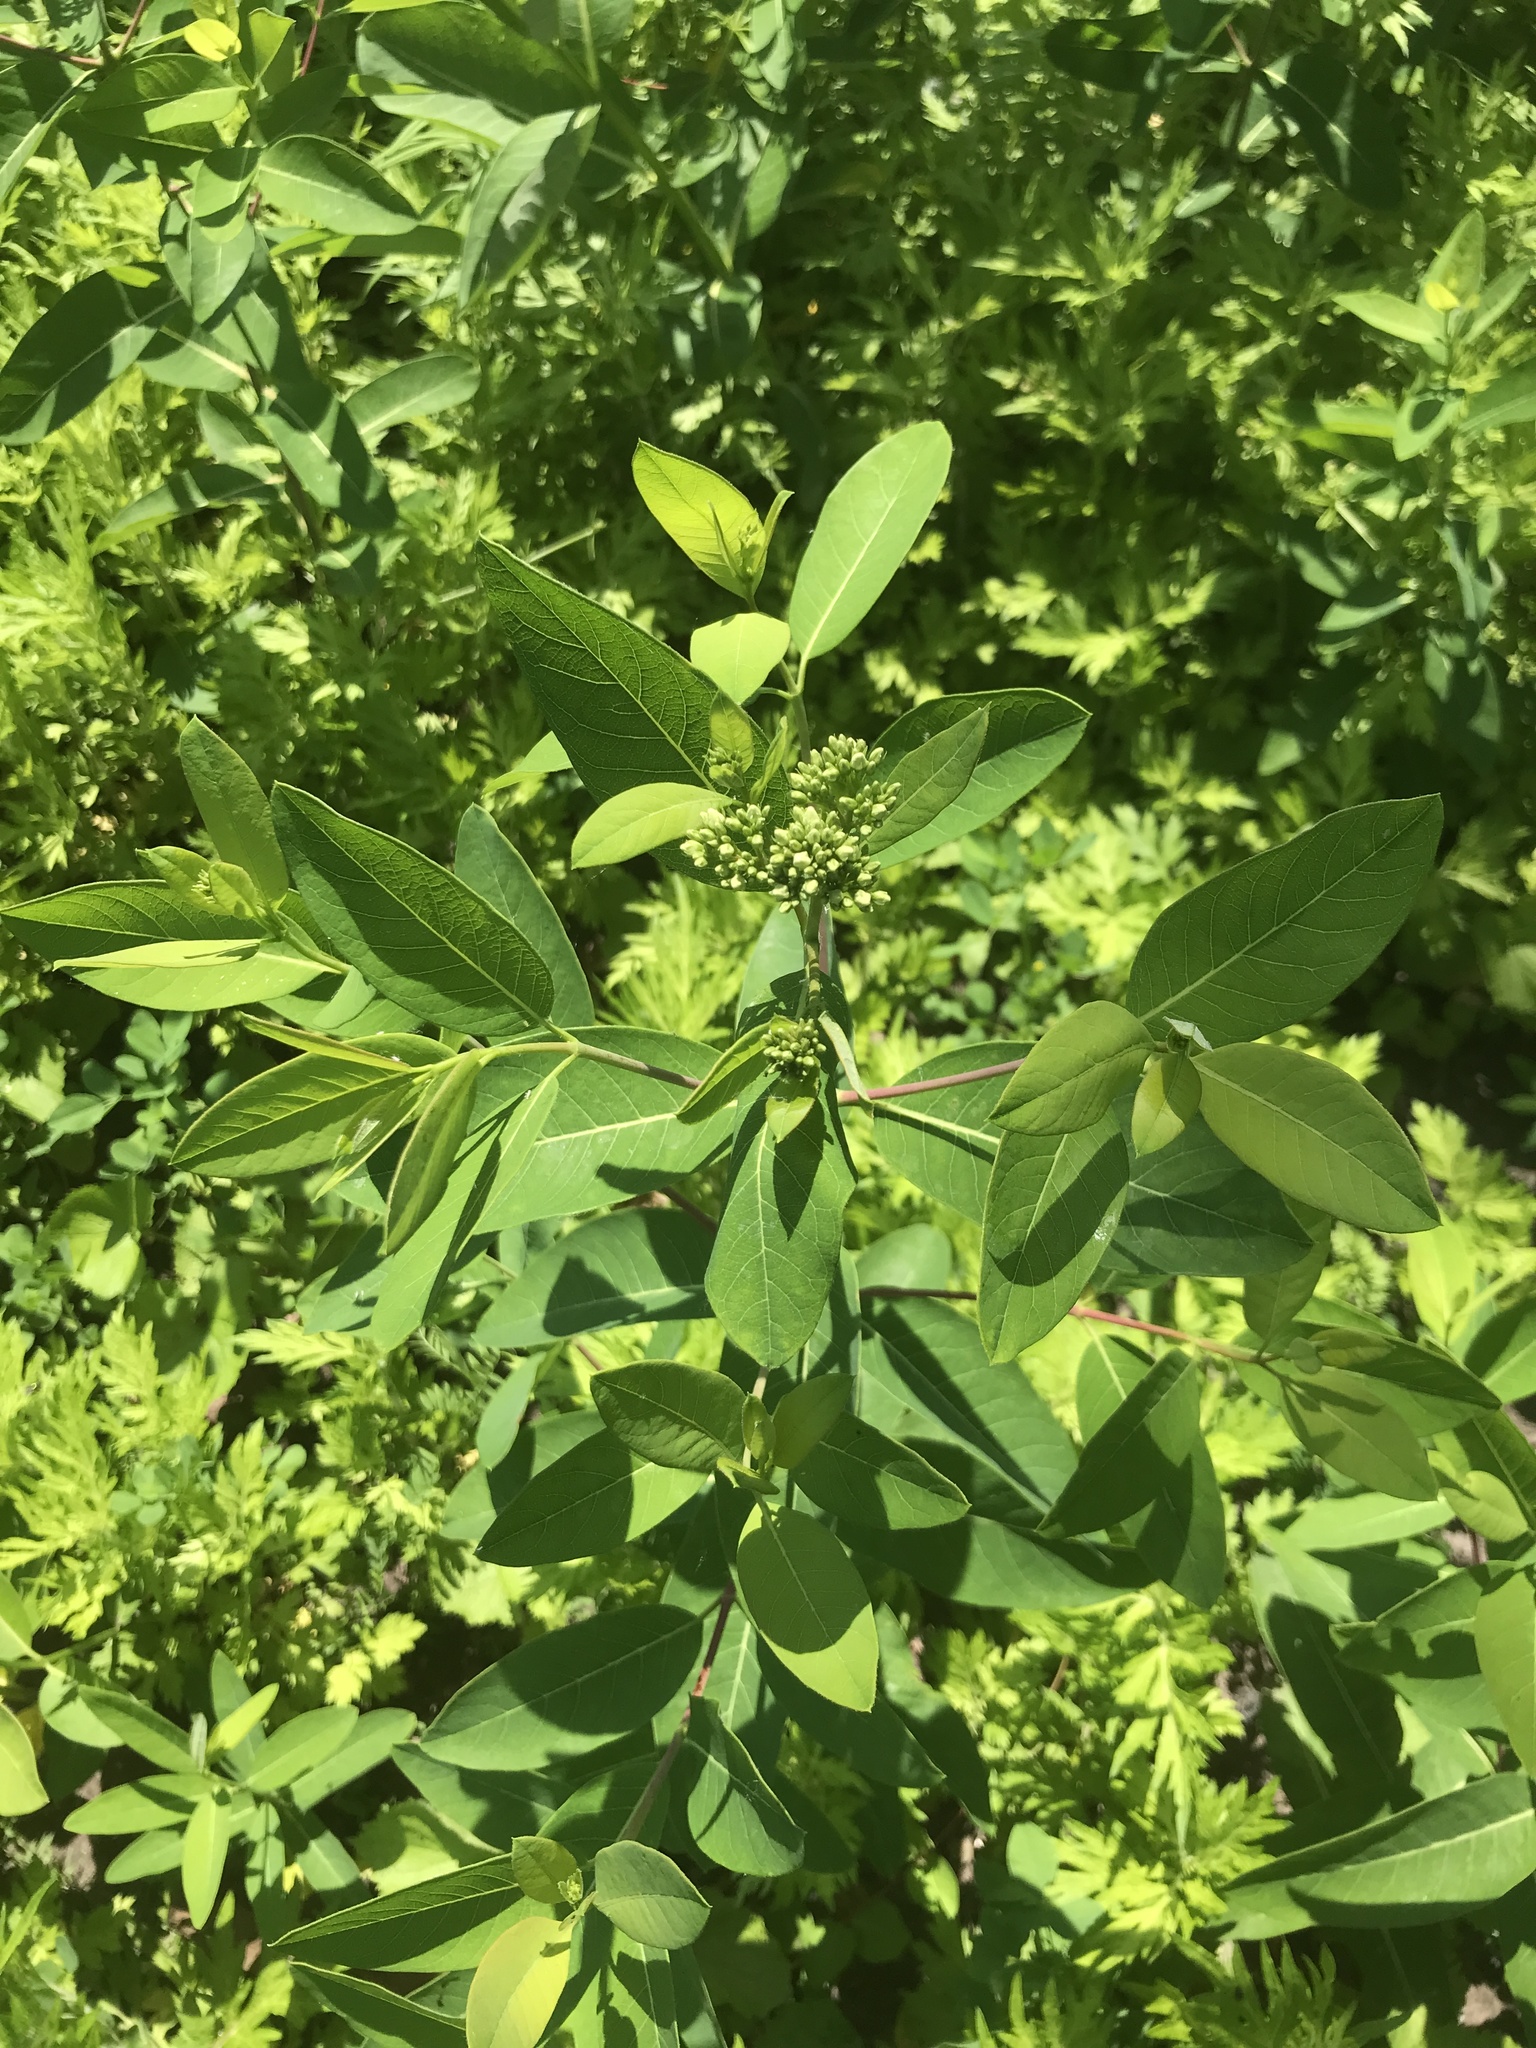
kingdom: Plantae
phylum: Tracheophyta
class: Magnoliopsida
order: Gentianales
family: Apocynaceae
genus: Apocynum
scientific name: Apocynum cannabinum
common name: Hemp dogbane
